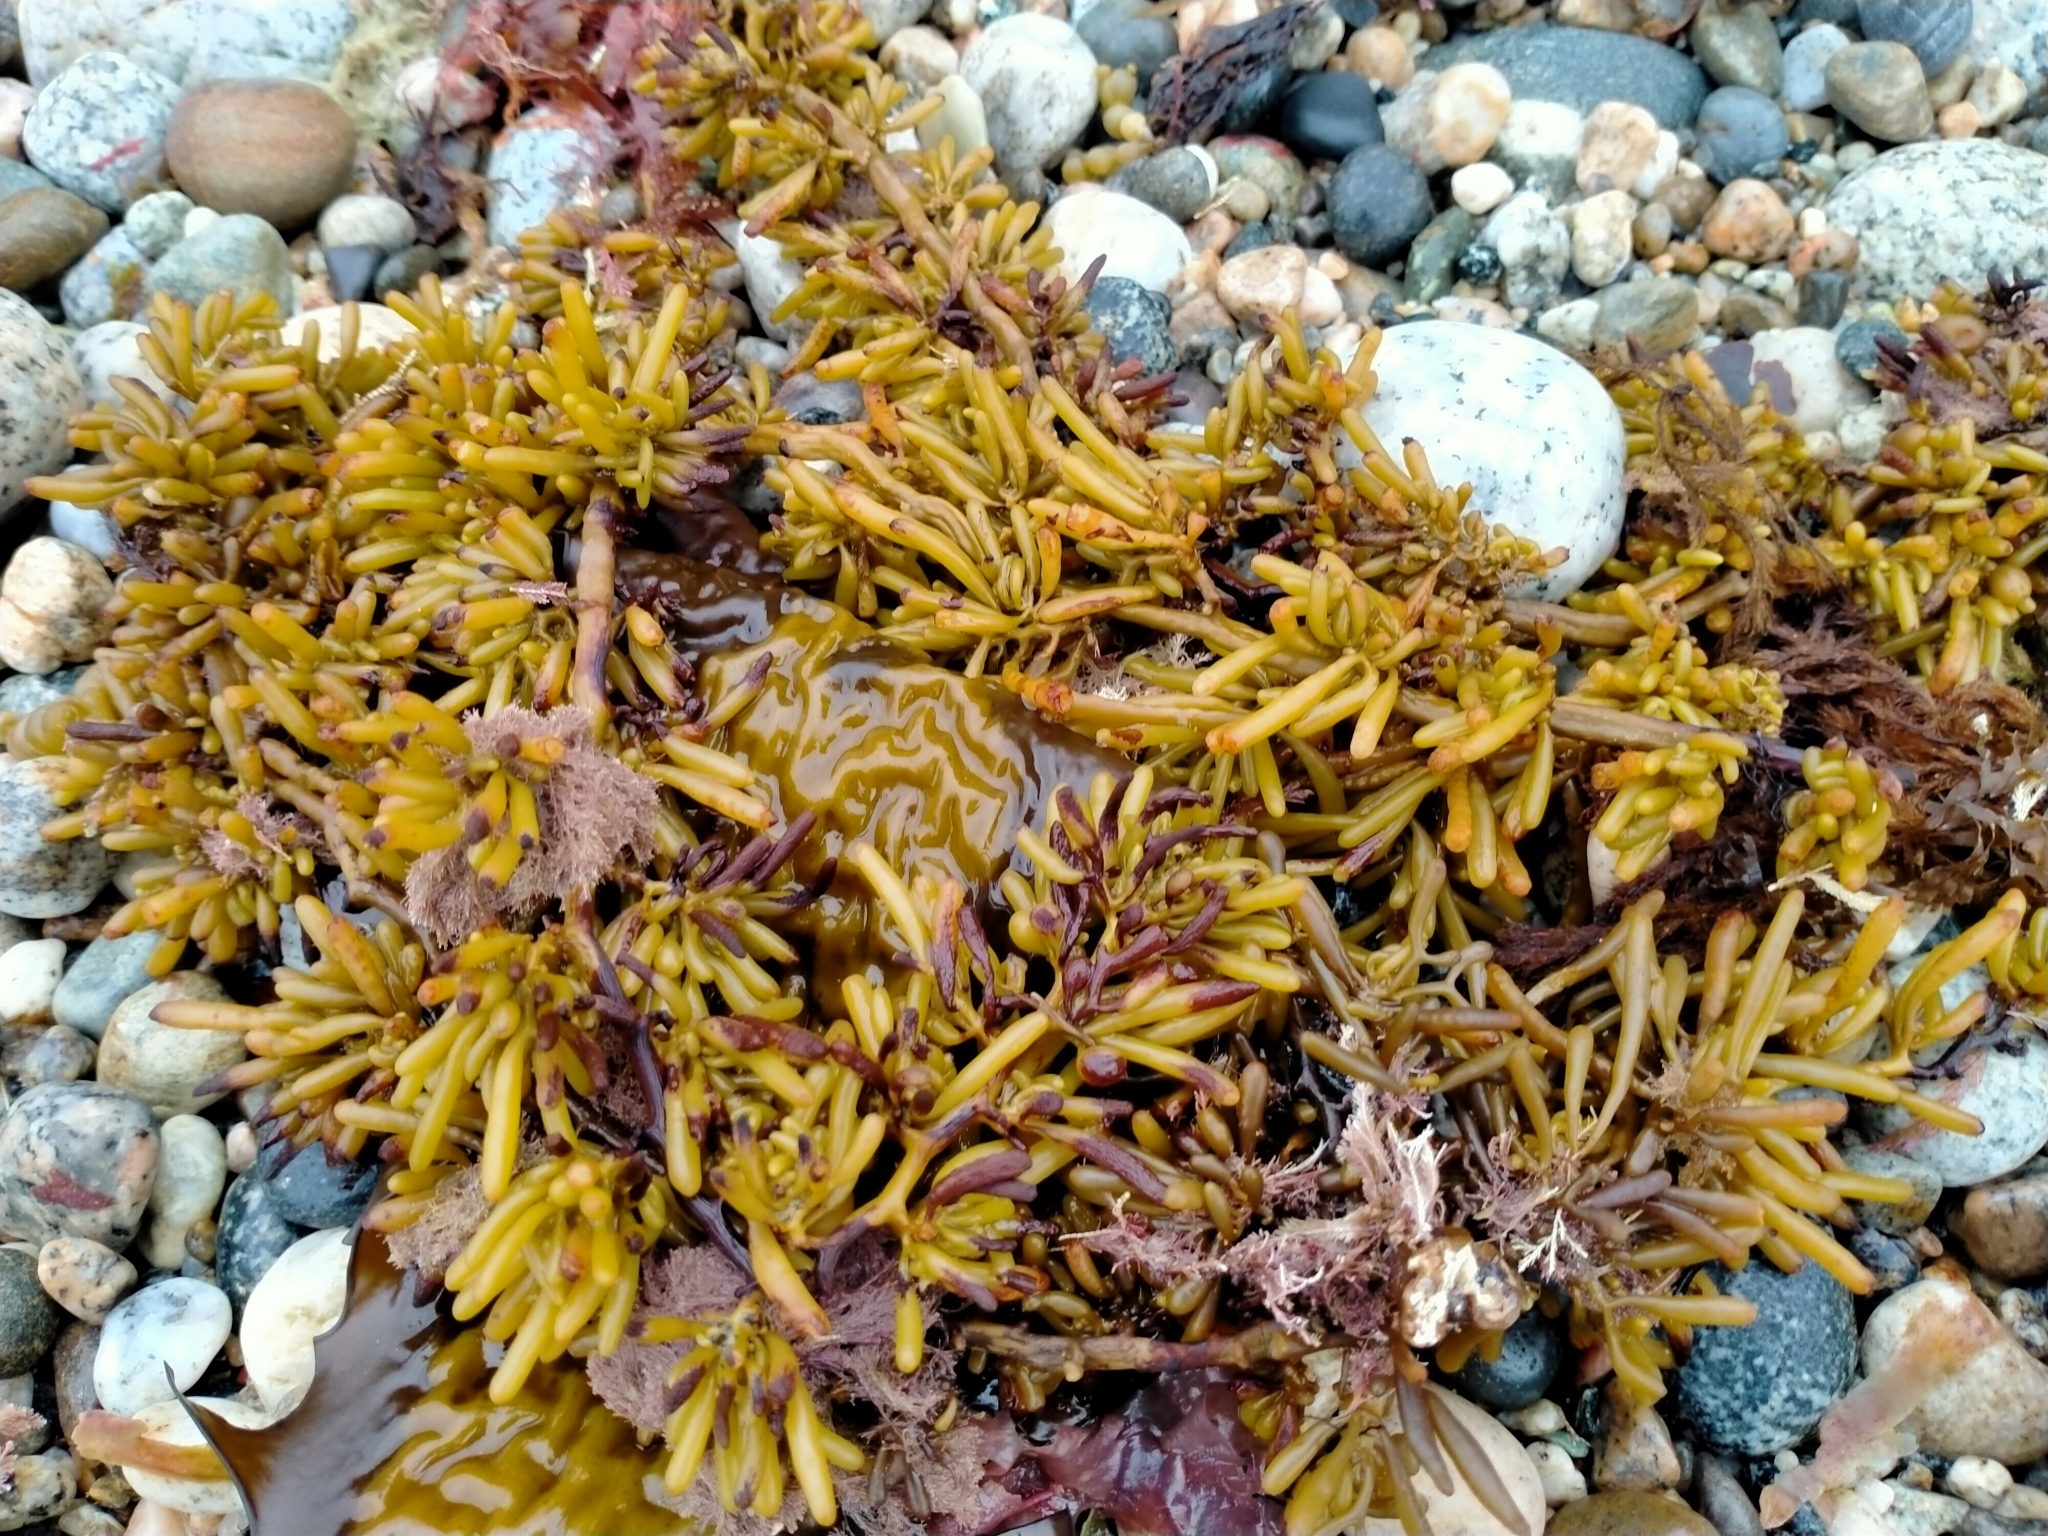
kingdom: Chromista
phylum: Ochrophyta
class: Phaeophyceae
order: Fucales
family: Sargassaceae
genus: Cystophora
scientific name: Cystophora torulosa
